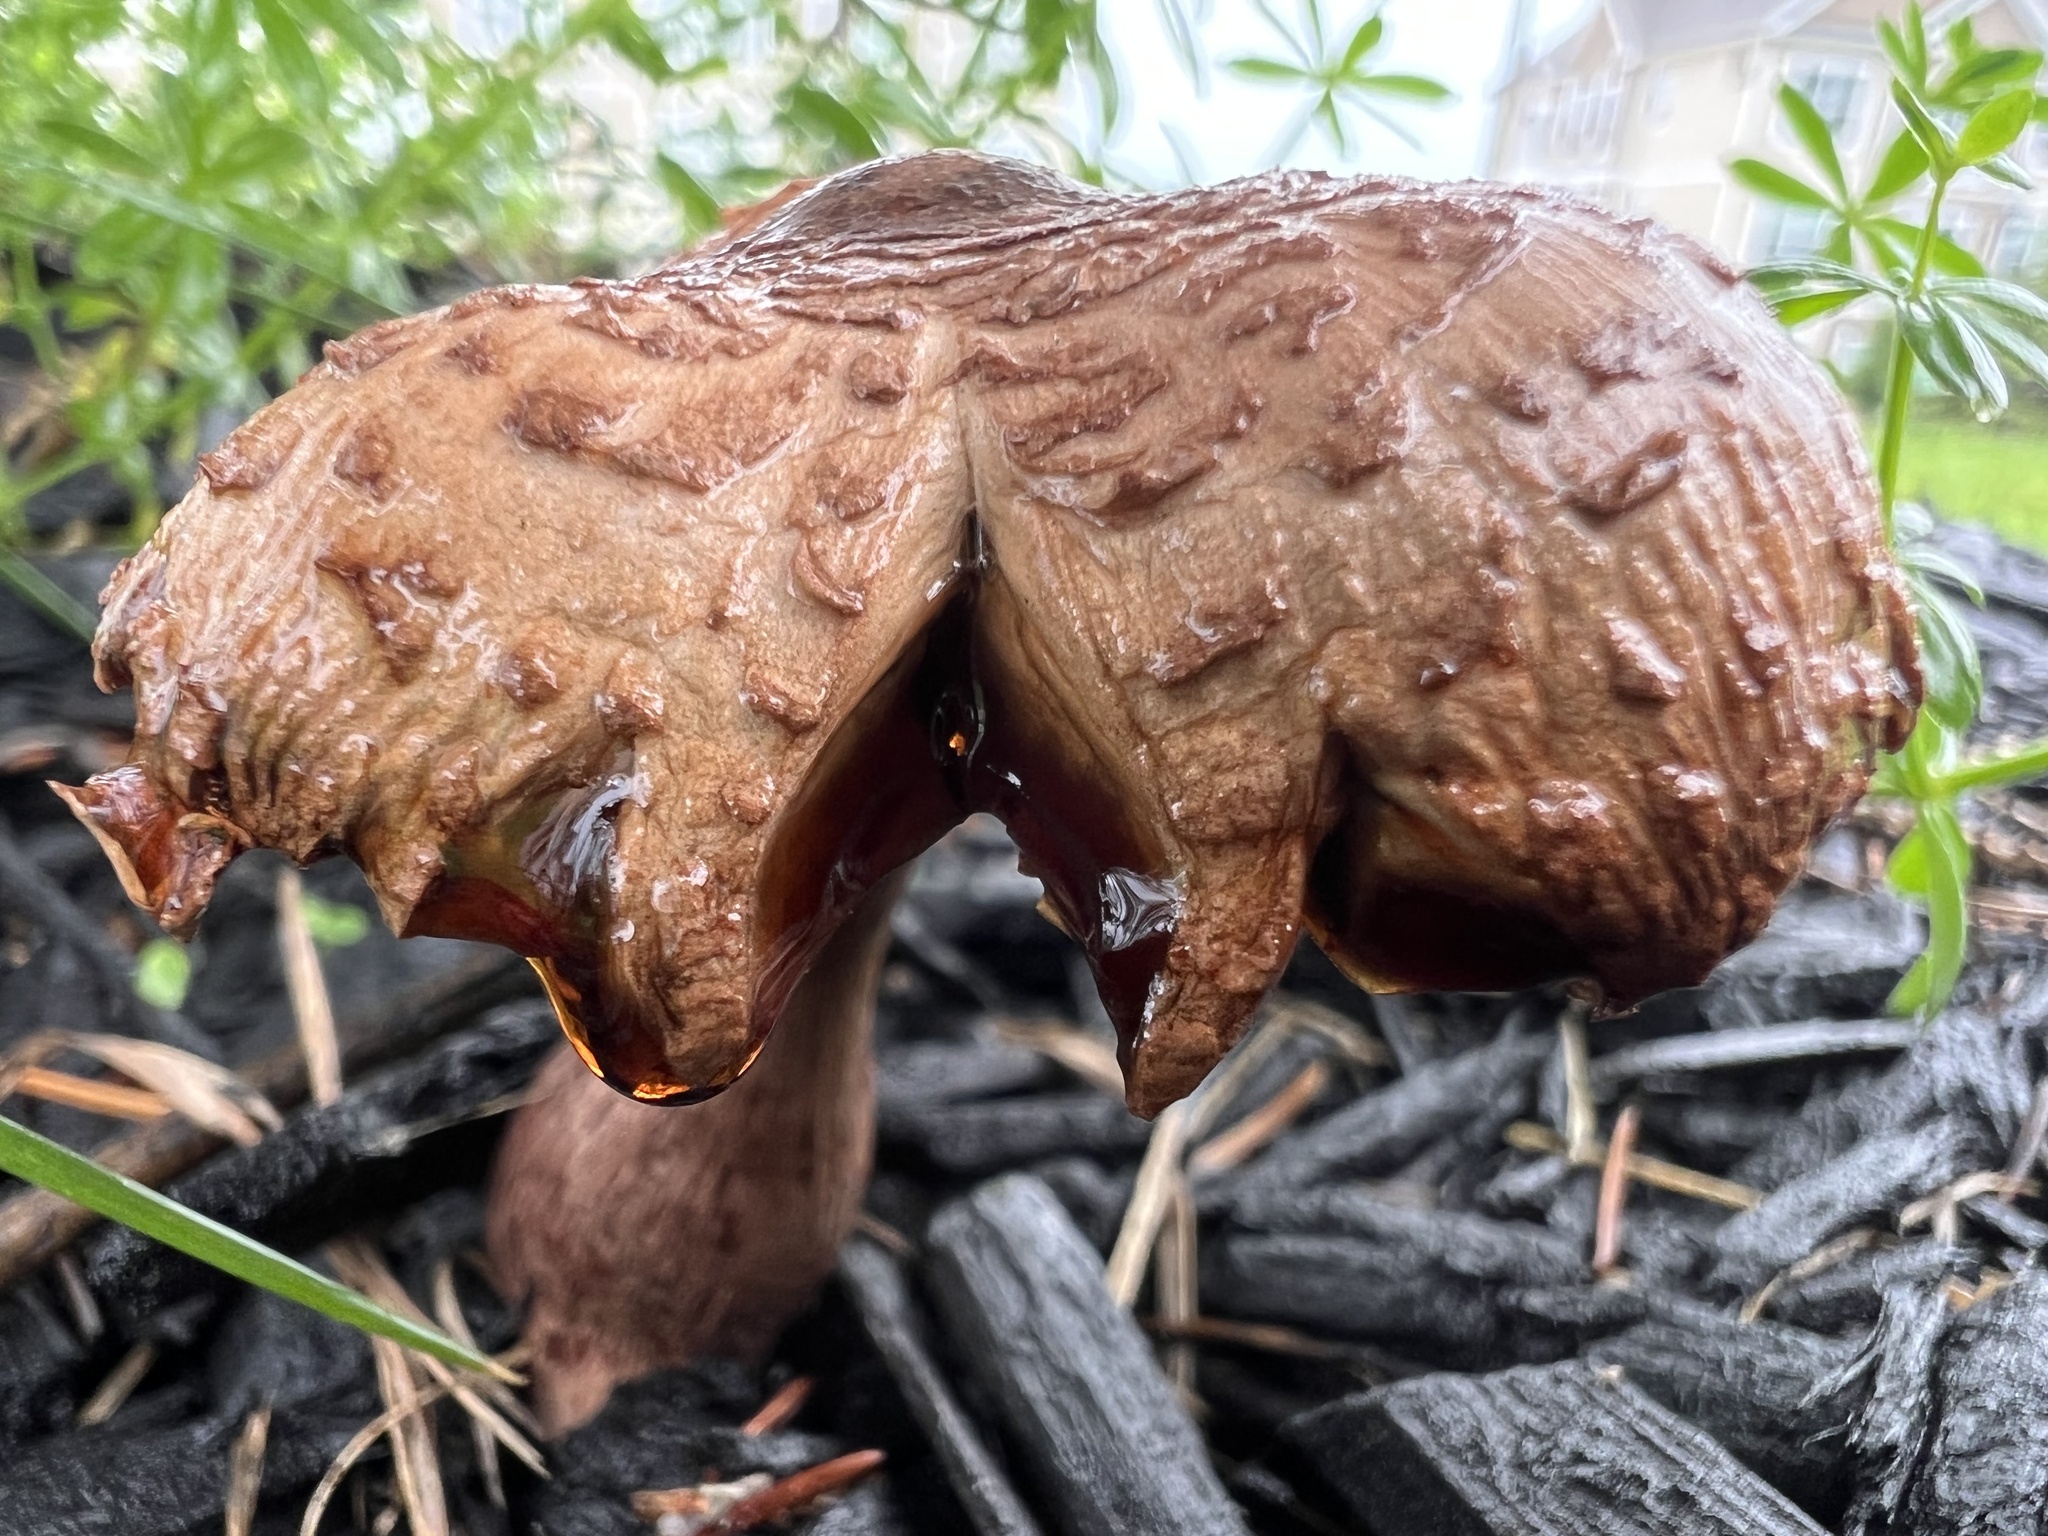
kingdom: Fungi
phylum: Basidiomycota
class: Agaricomycetes
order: Agaricales
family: Agaricaceae
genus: Leucoagaricus
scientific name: Leucoagaricus americanus
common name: Reddening lepiota
